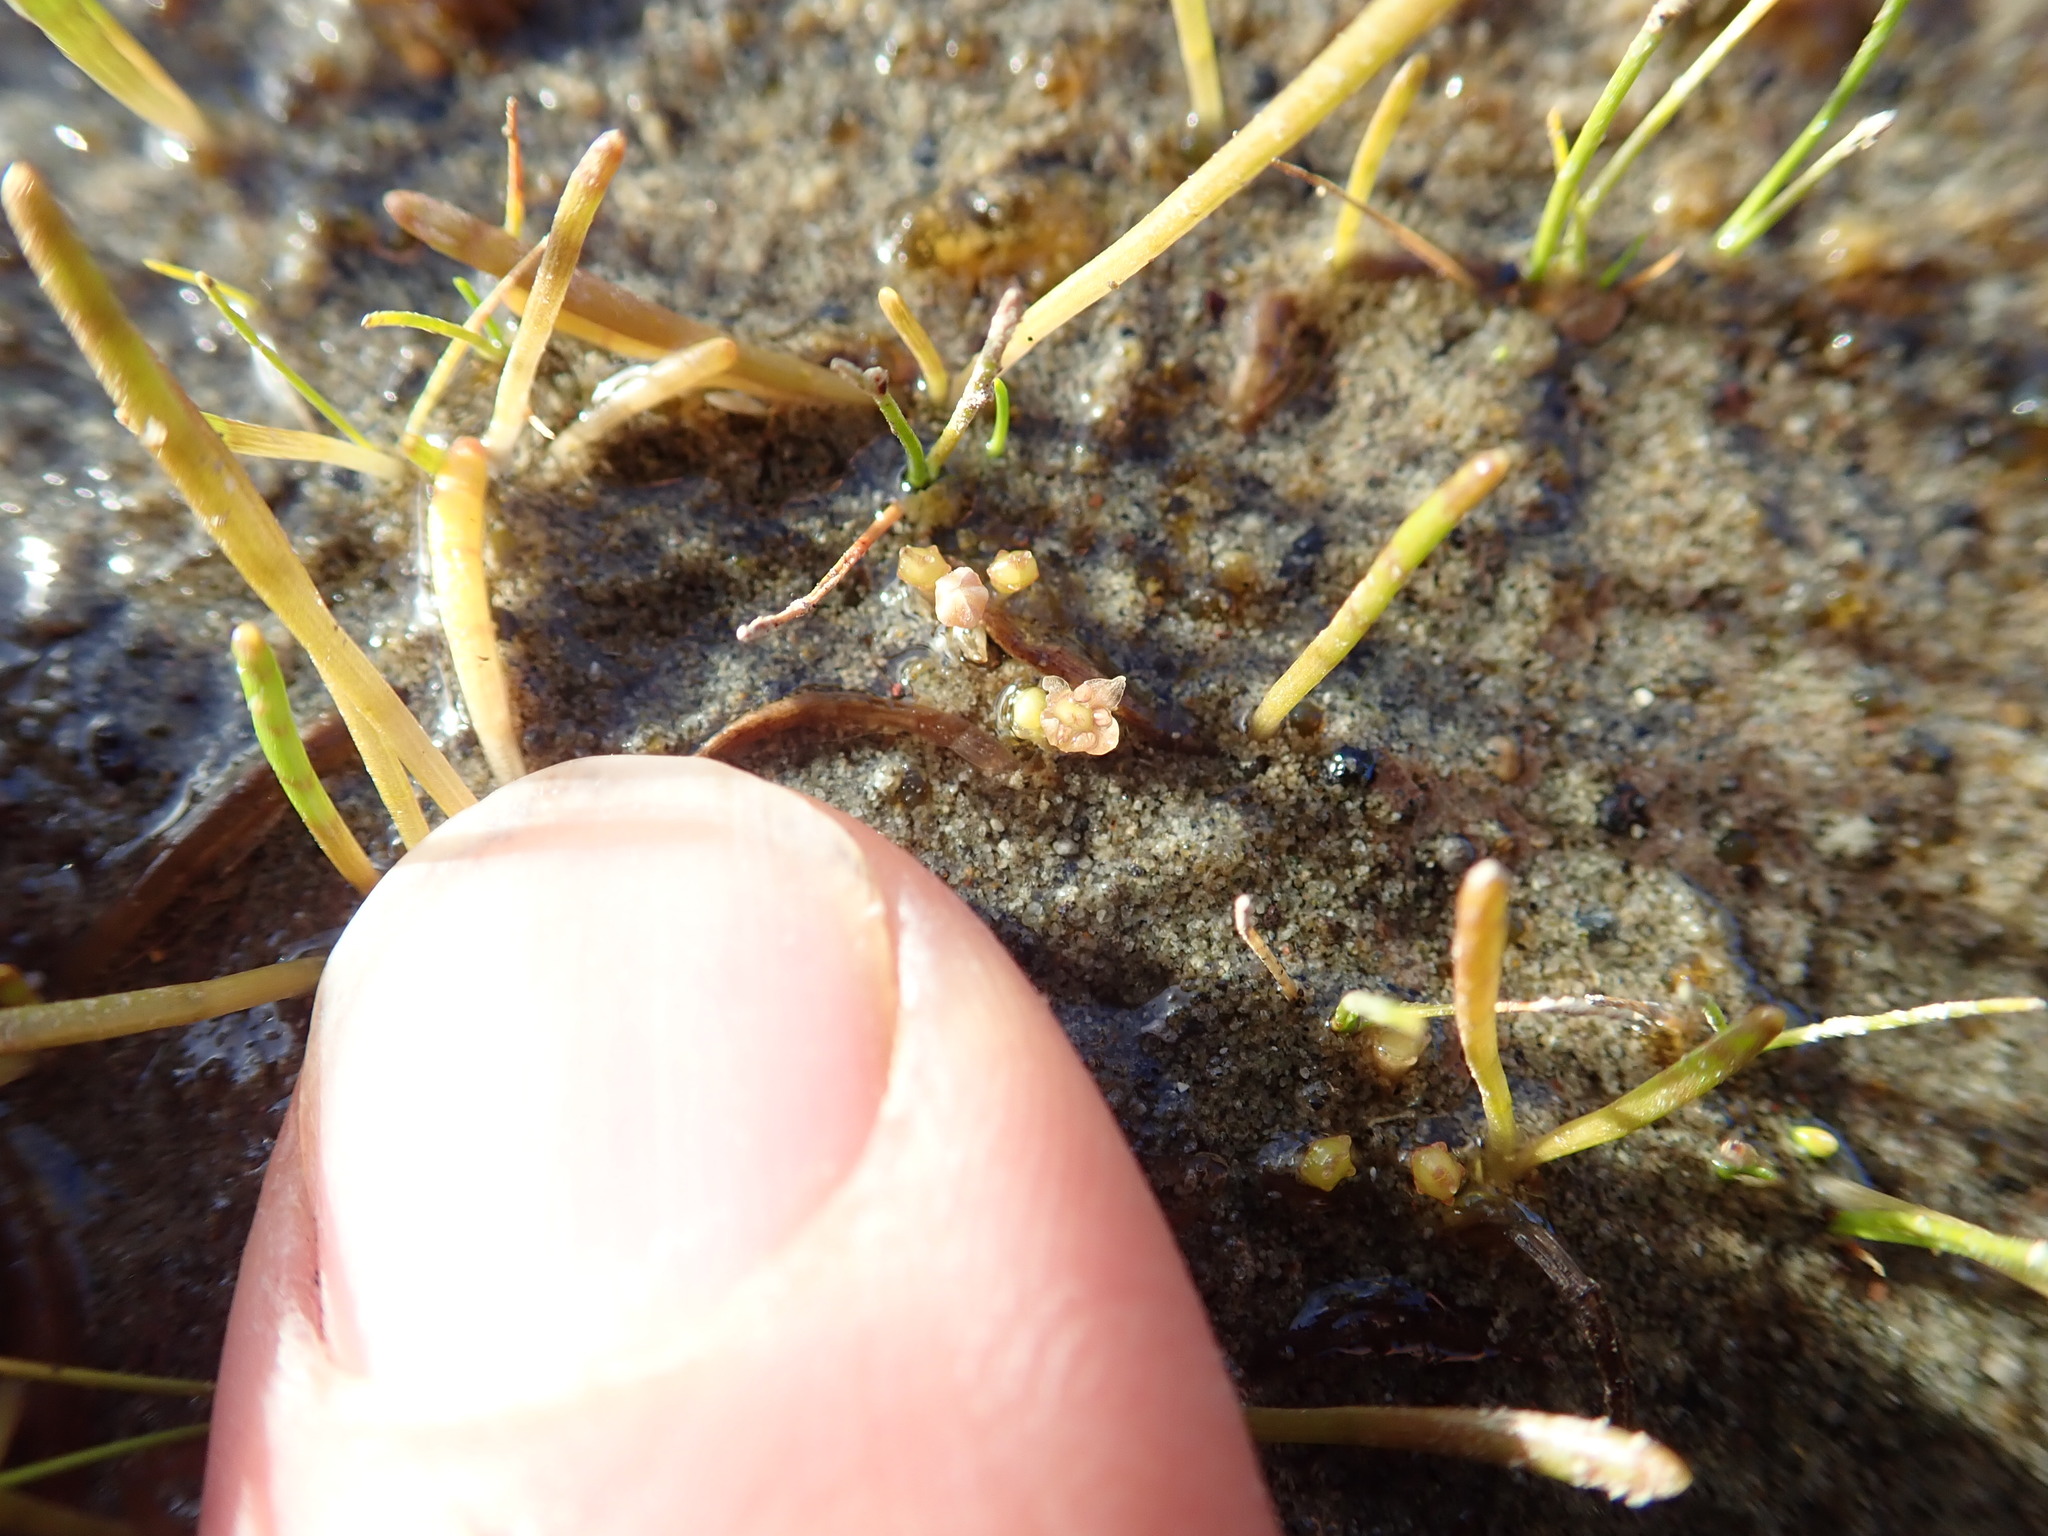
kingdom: Plantae
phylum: Tracheophyta
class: Magnoliopsida
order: Apiales
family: Apiaceae
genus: Lilaeopsis
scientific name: Lilaeopsis novae-zelandiae
